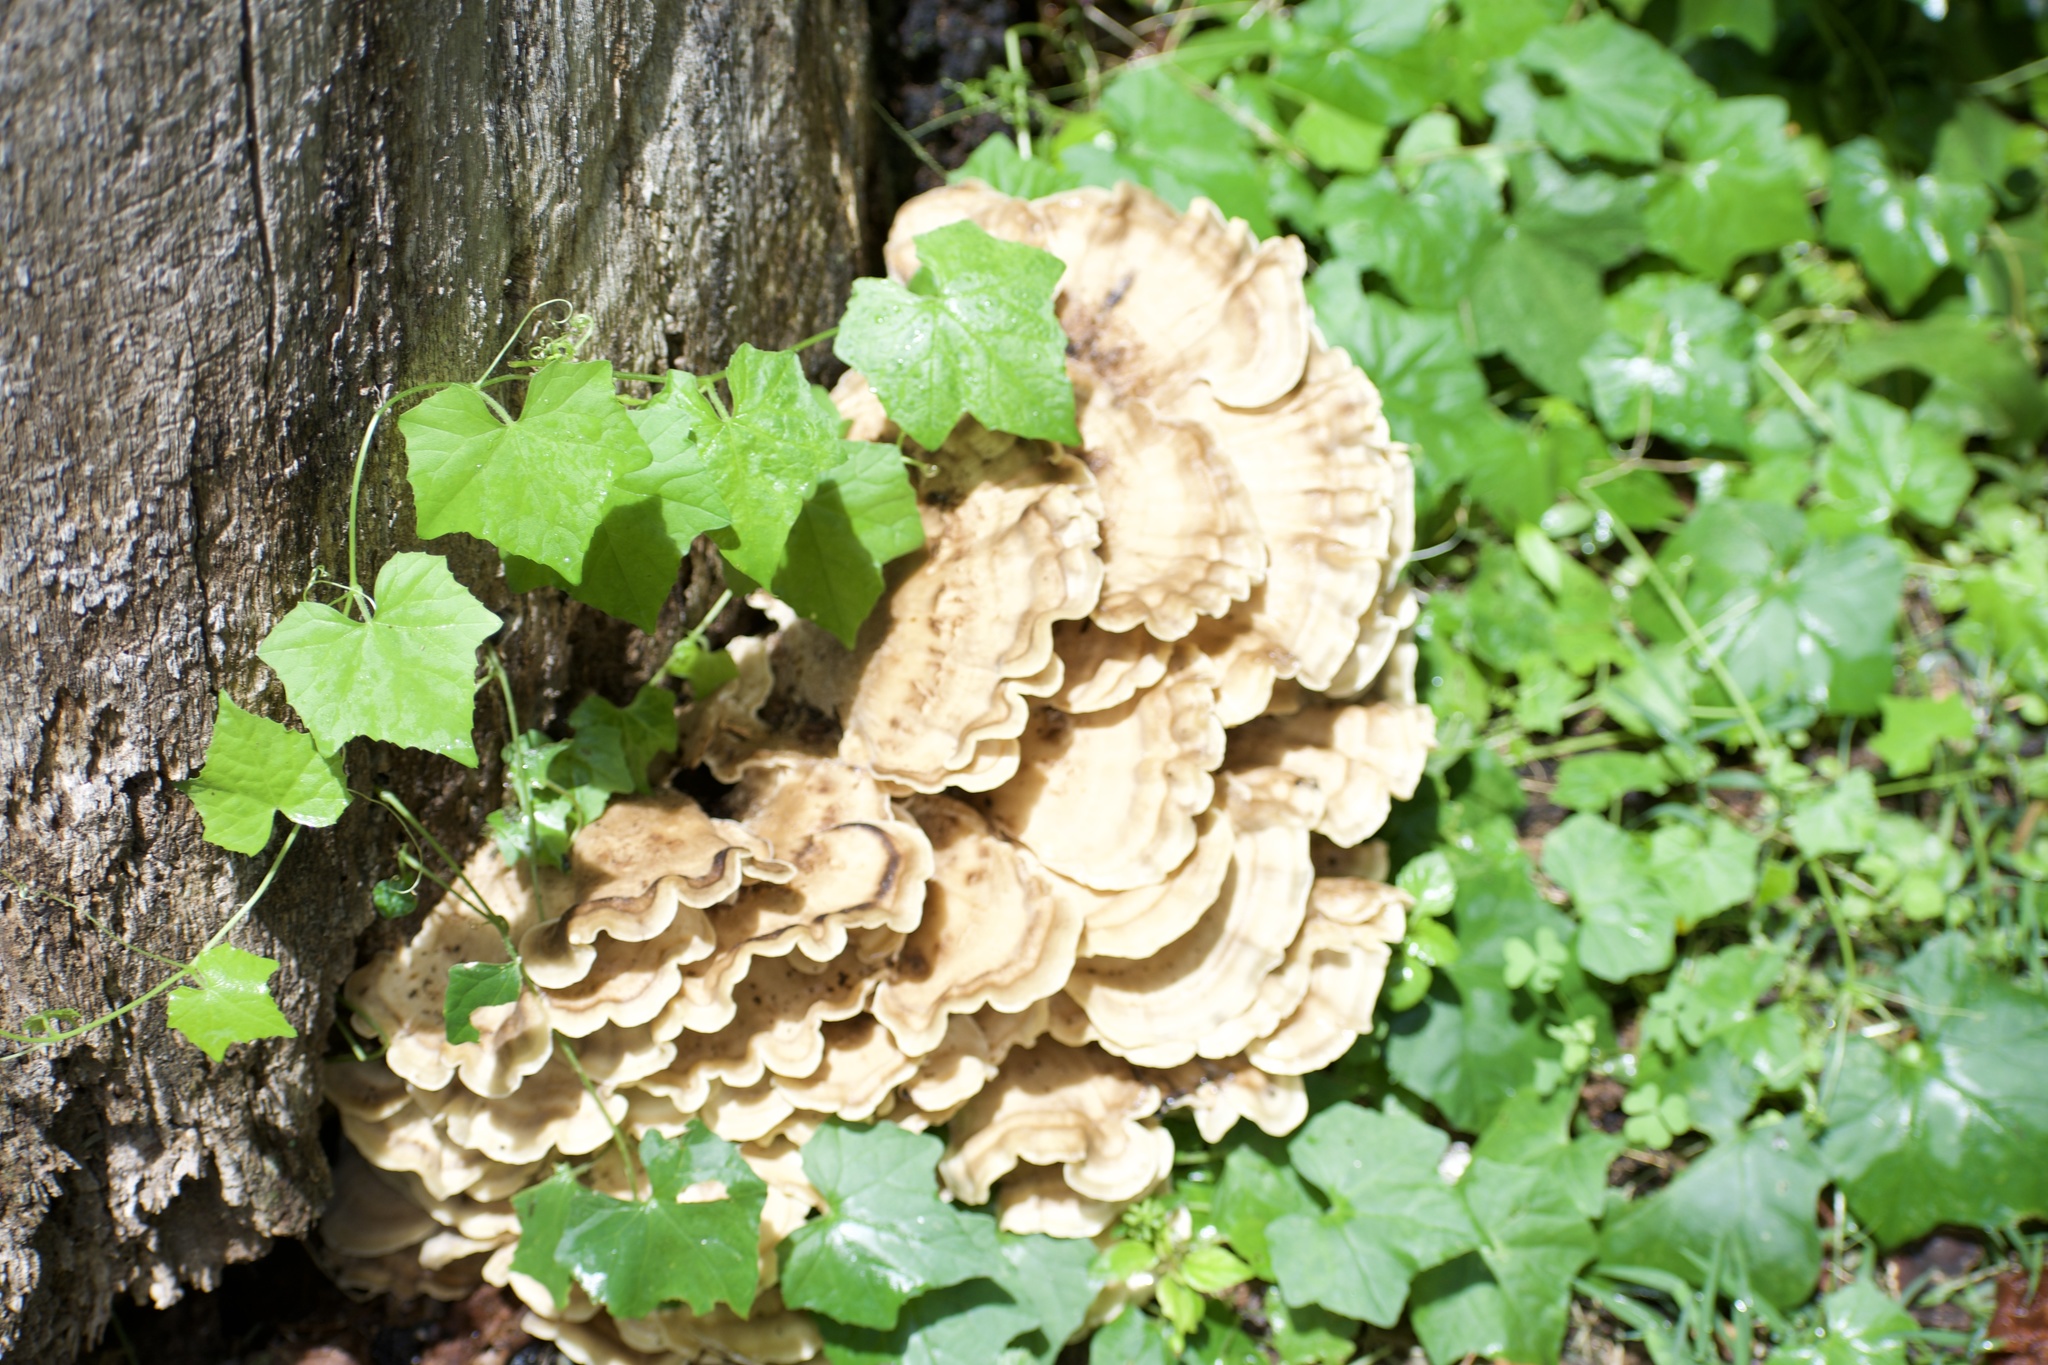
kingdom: Fungi
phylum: Basidiomycota
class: Agaricomycetes
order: Polyporales
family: Meripilaceae
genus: Meripilus
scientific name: Meripilus sumstinei
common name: Black-staining polypore
